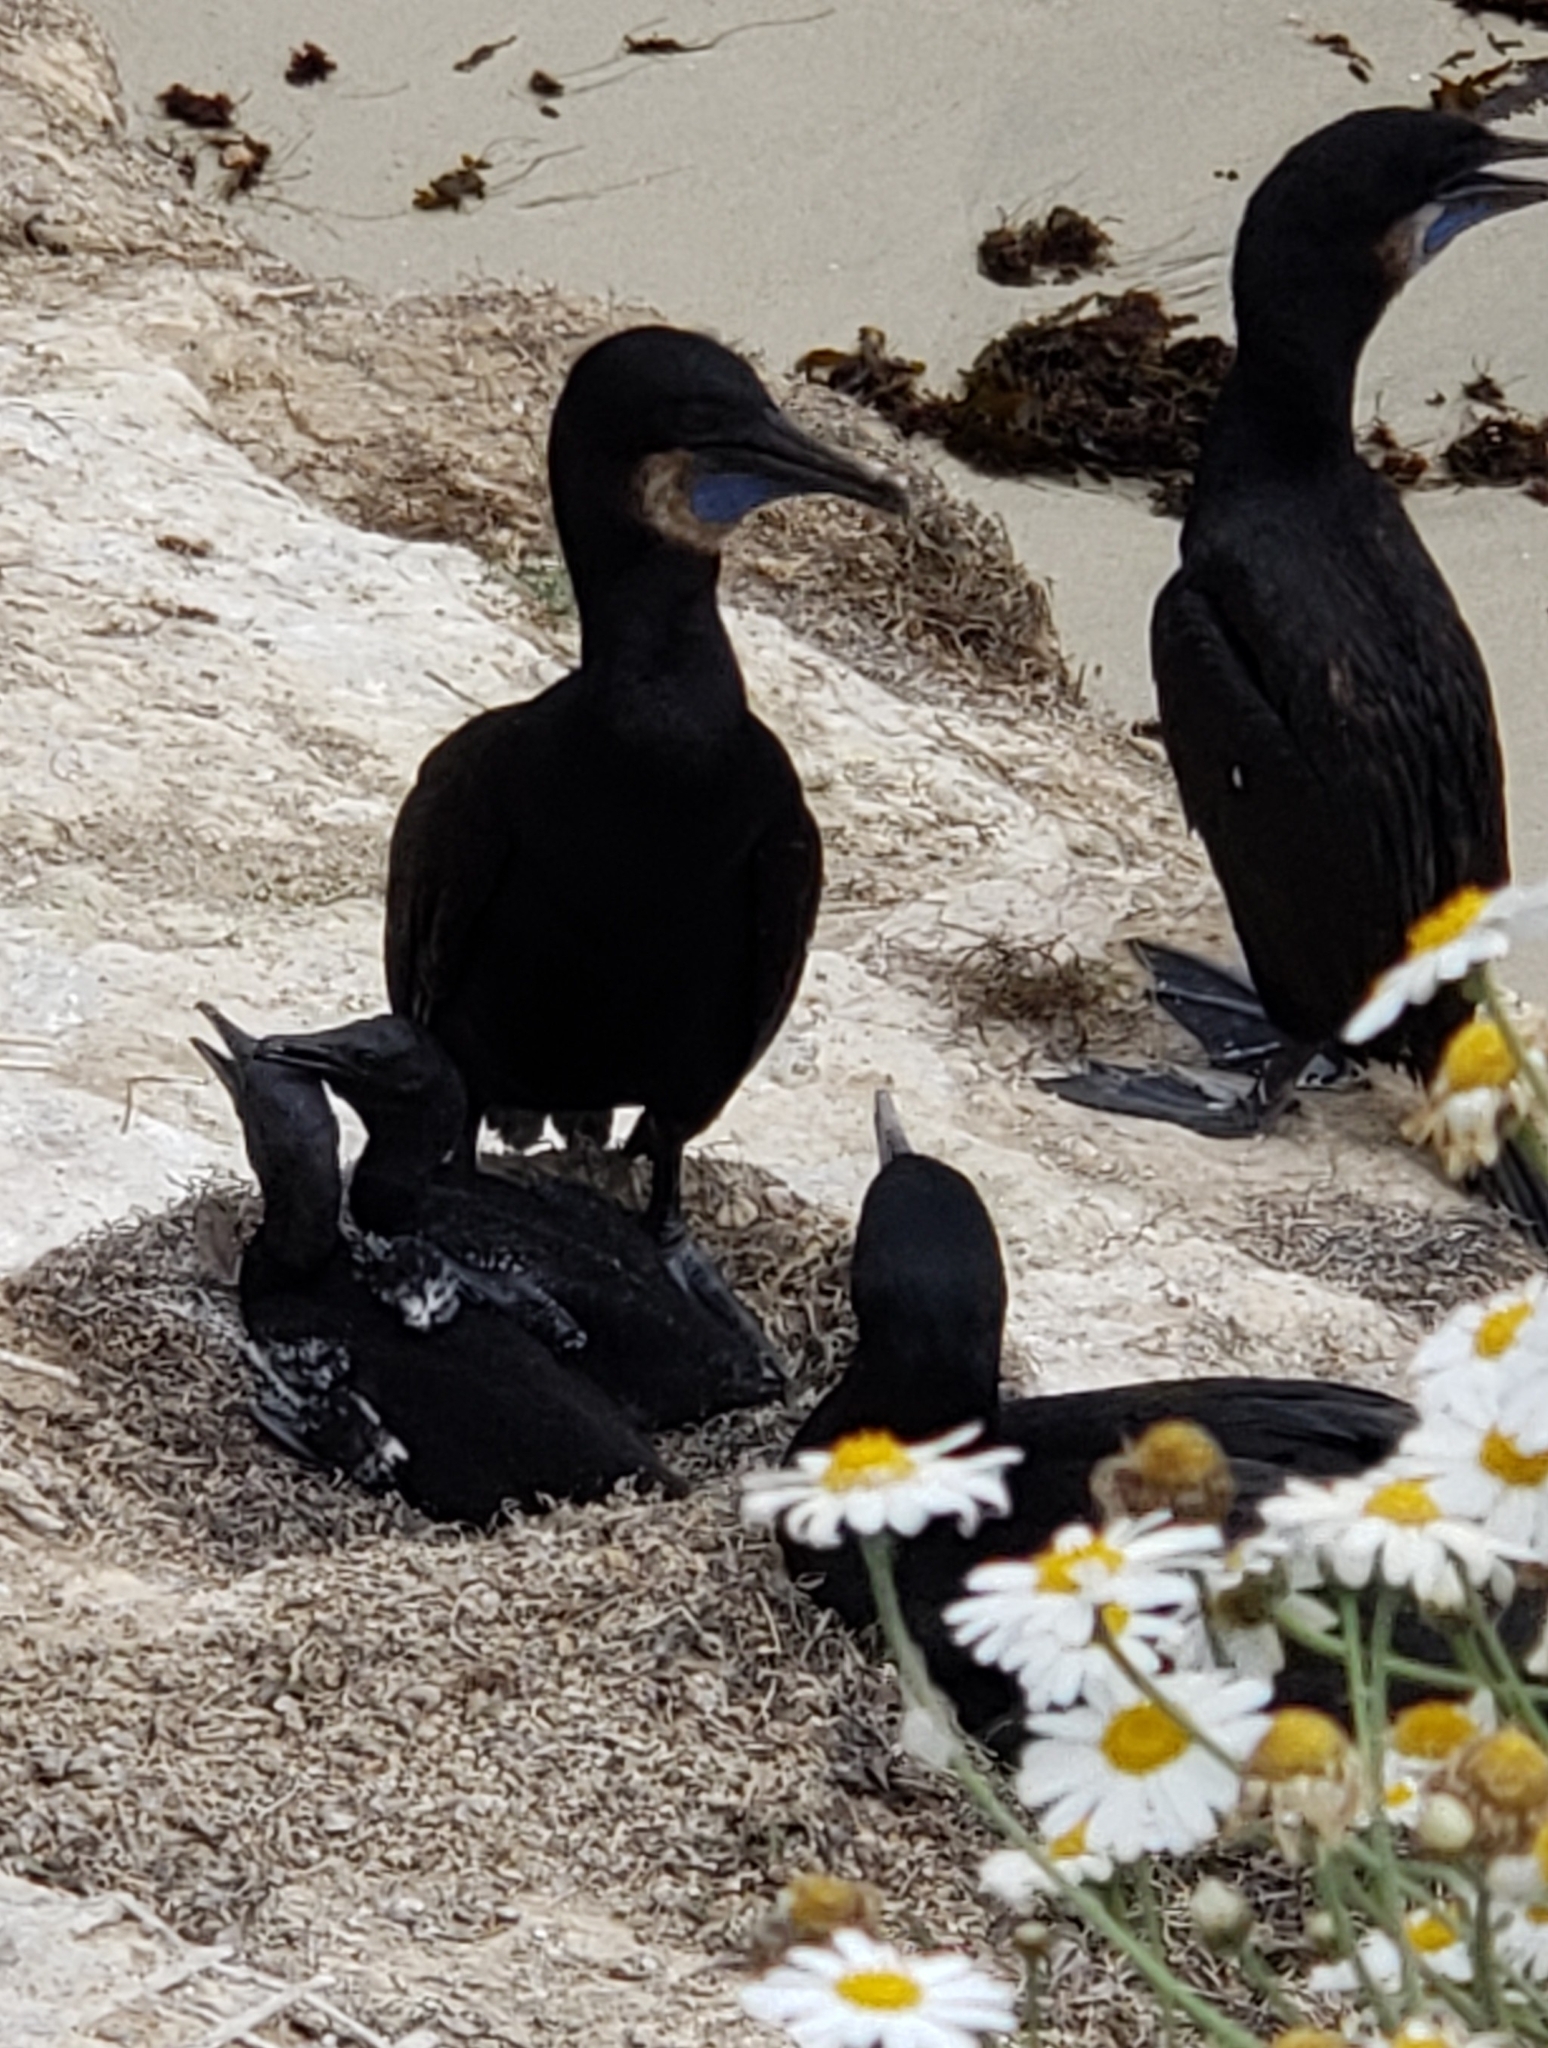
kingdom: Animalia
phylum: Chordata
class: Aves
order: Suliformes
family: Phalacrocoracidae
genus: Urile
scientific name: Urile penicillatus
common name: Brandt's cormorant
